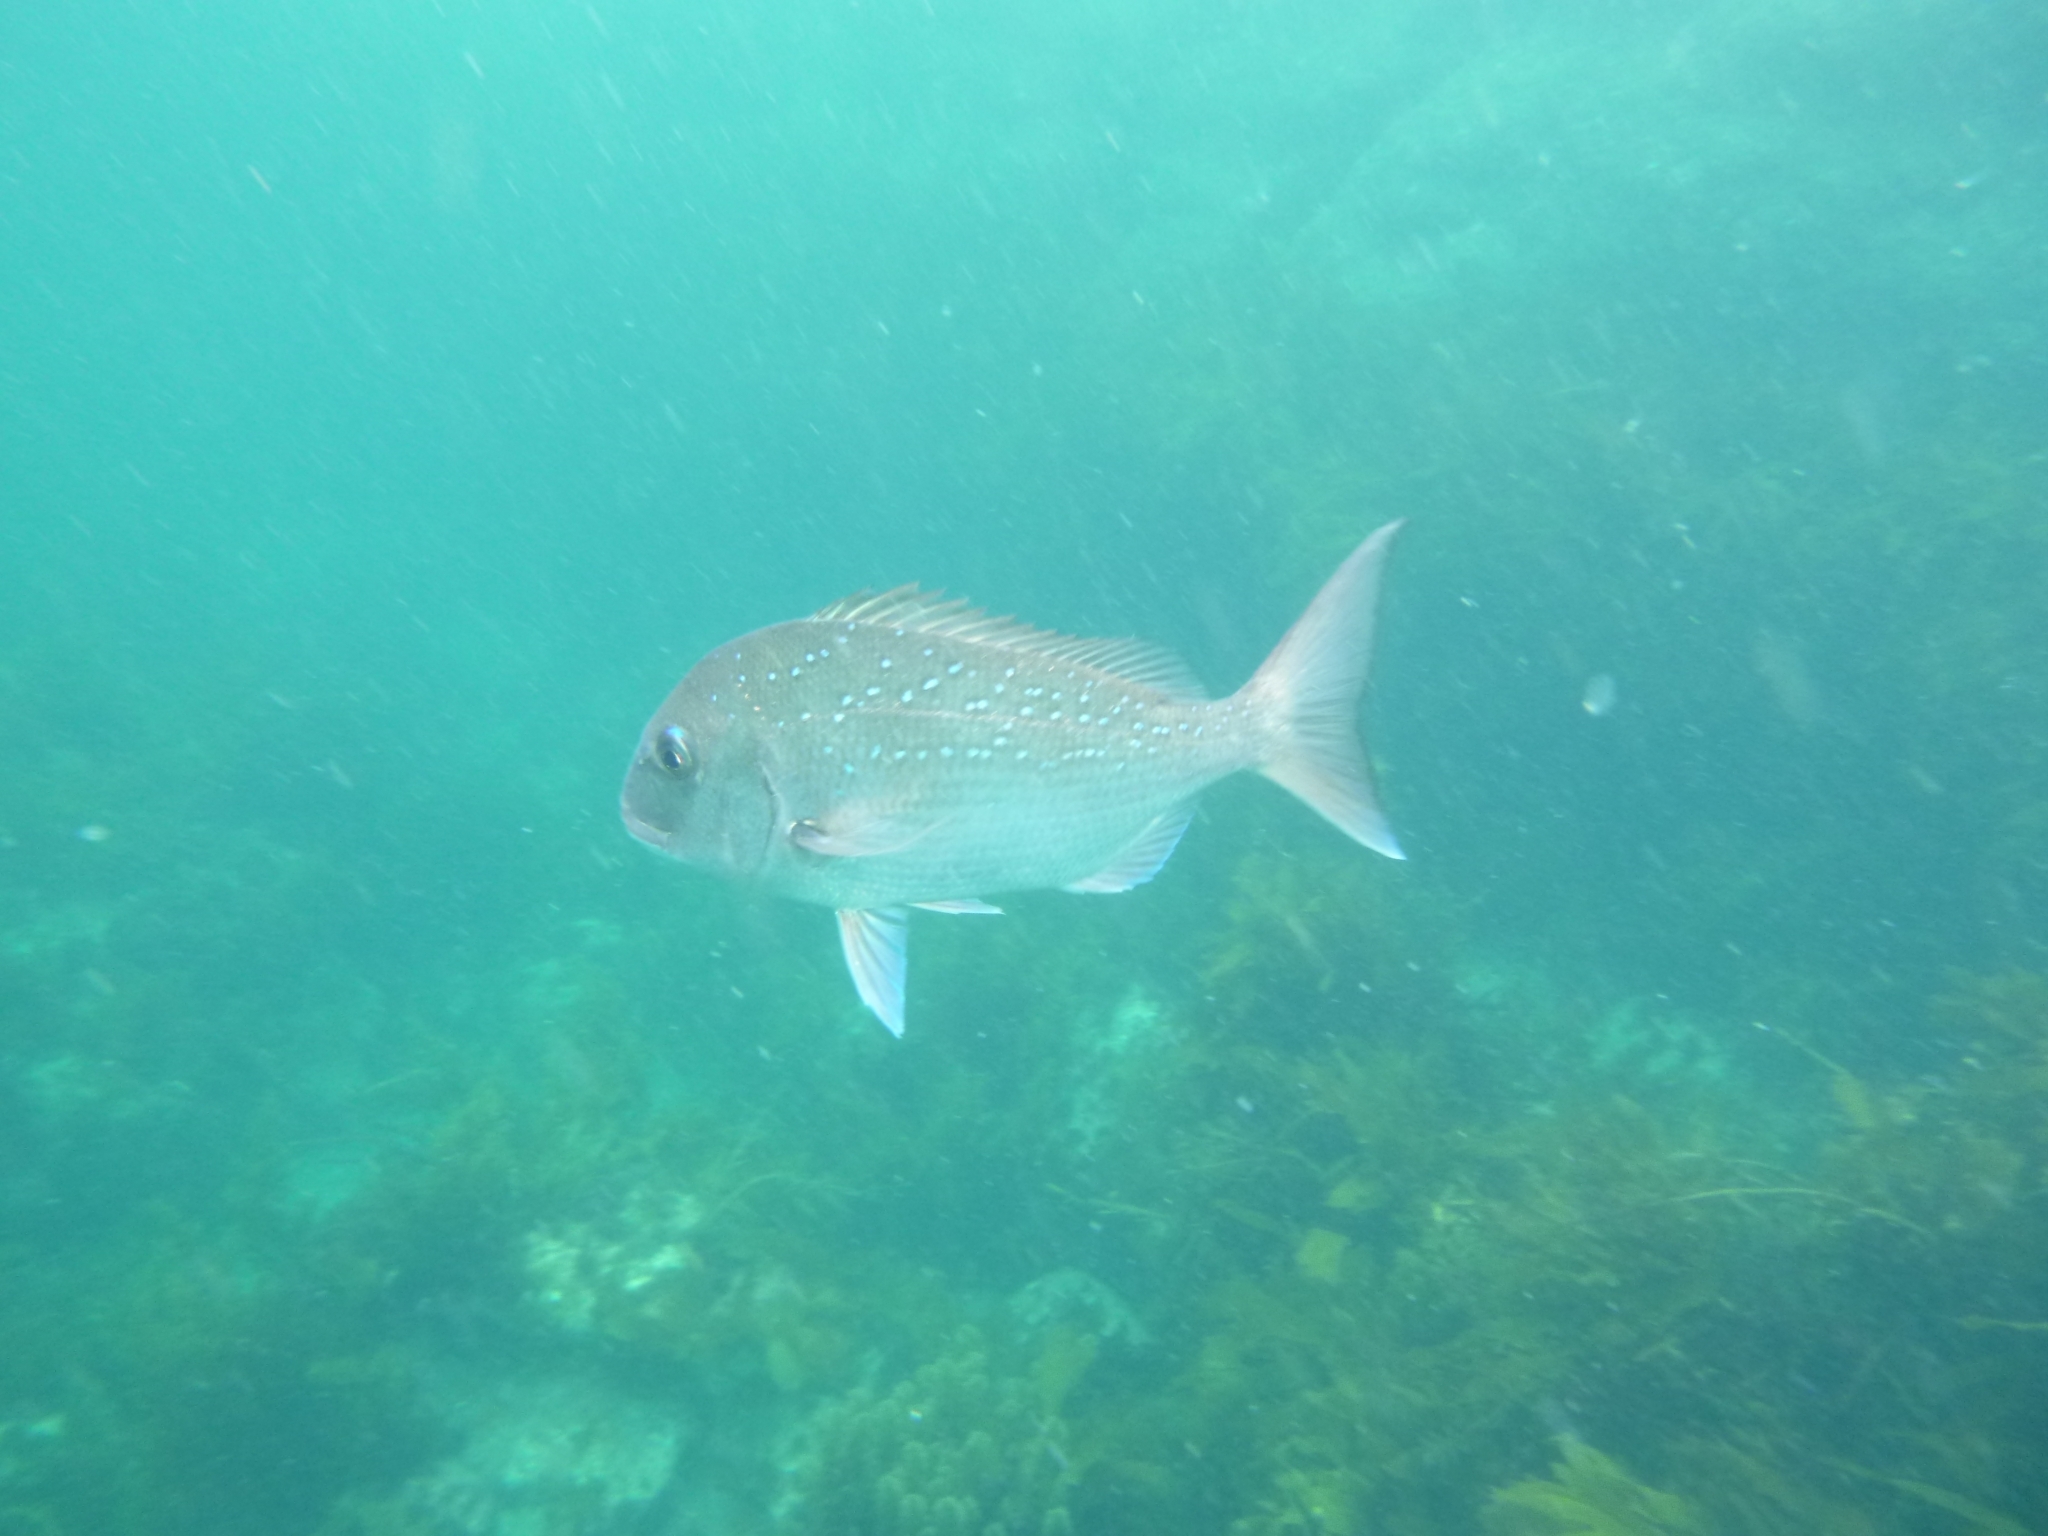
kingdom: Animalia
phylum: Chordata
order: Perciformes
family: Sparidae
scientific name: Sparidae
